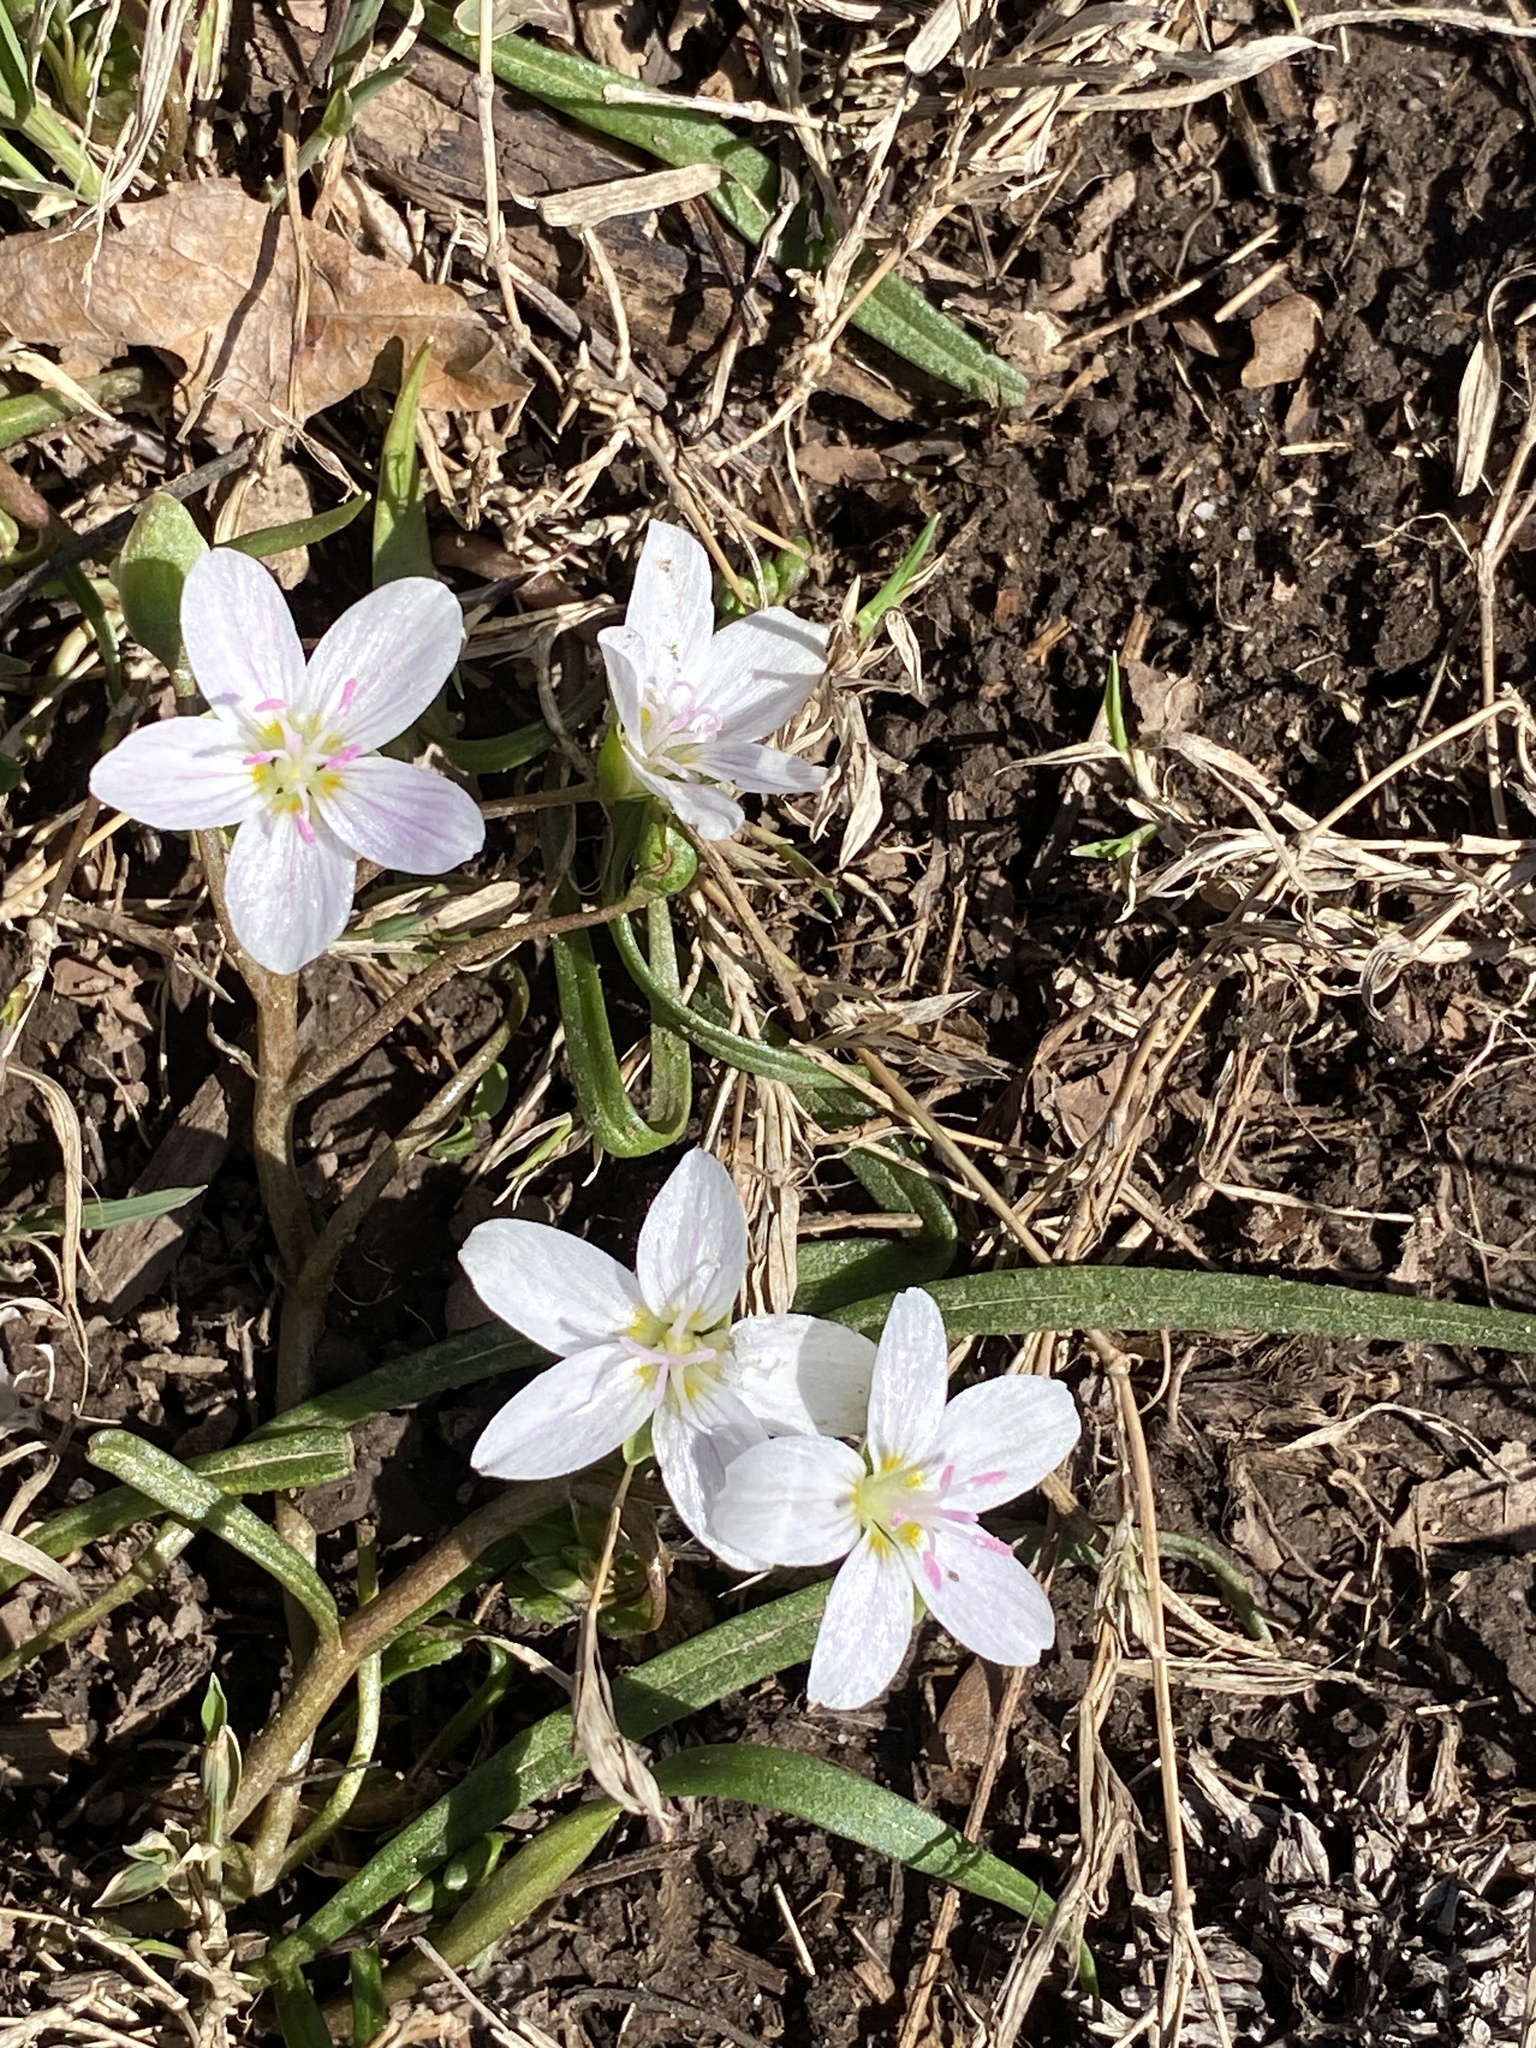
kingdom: Plantae
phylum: Tracheophyta
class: Magnoliopsida
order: Caryophyllales
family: Montiaceae
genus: Claytonia
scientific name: Claytonia virginica
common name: Virginia springbeauty
